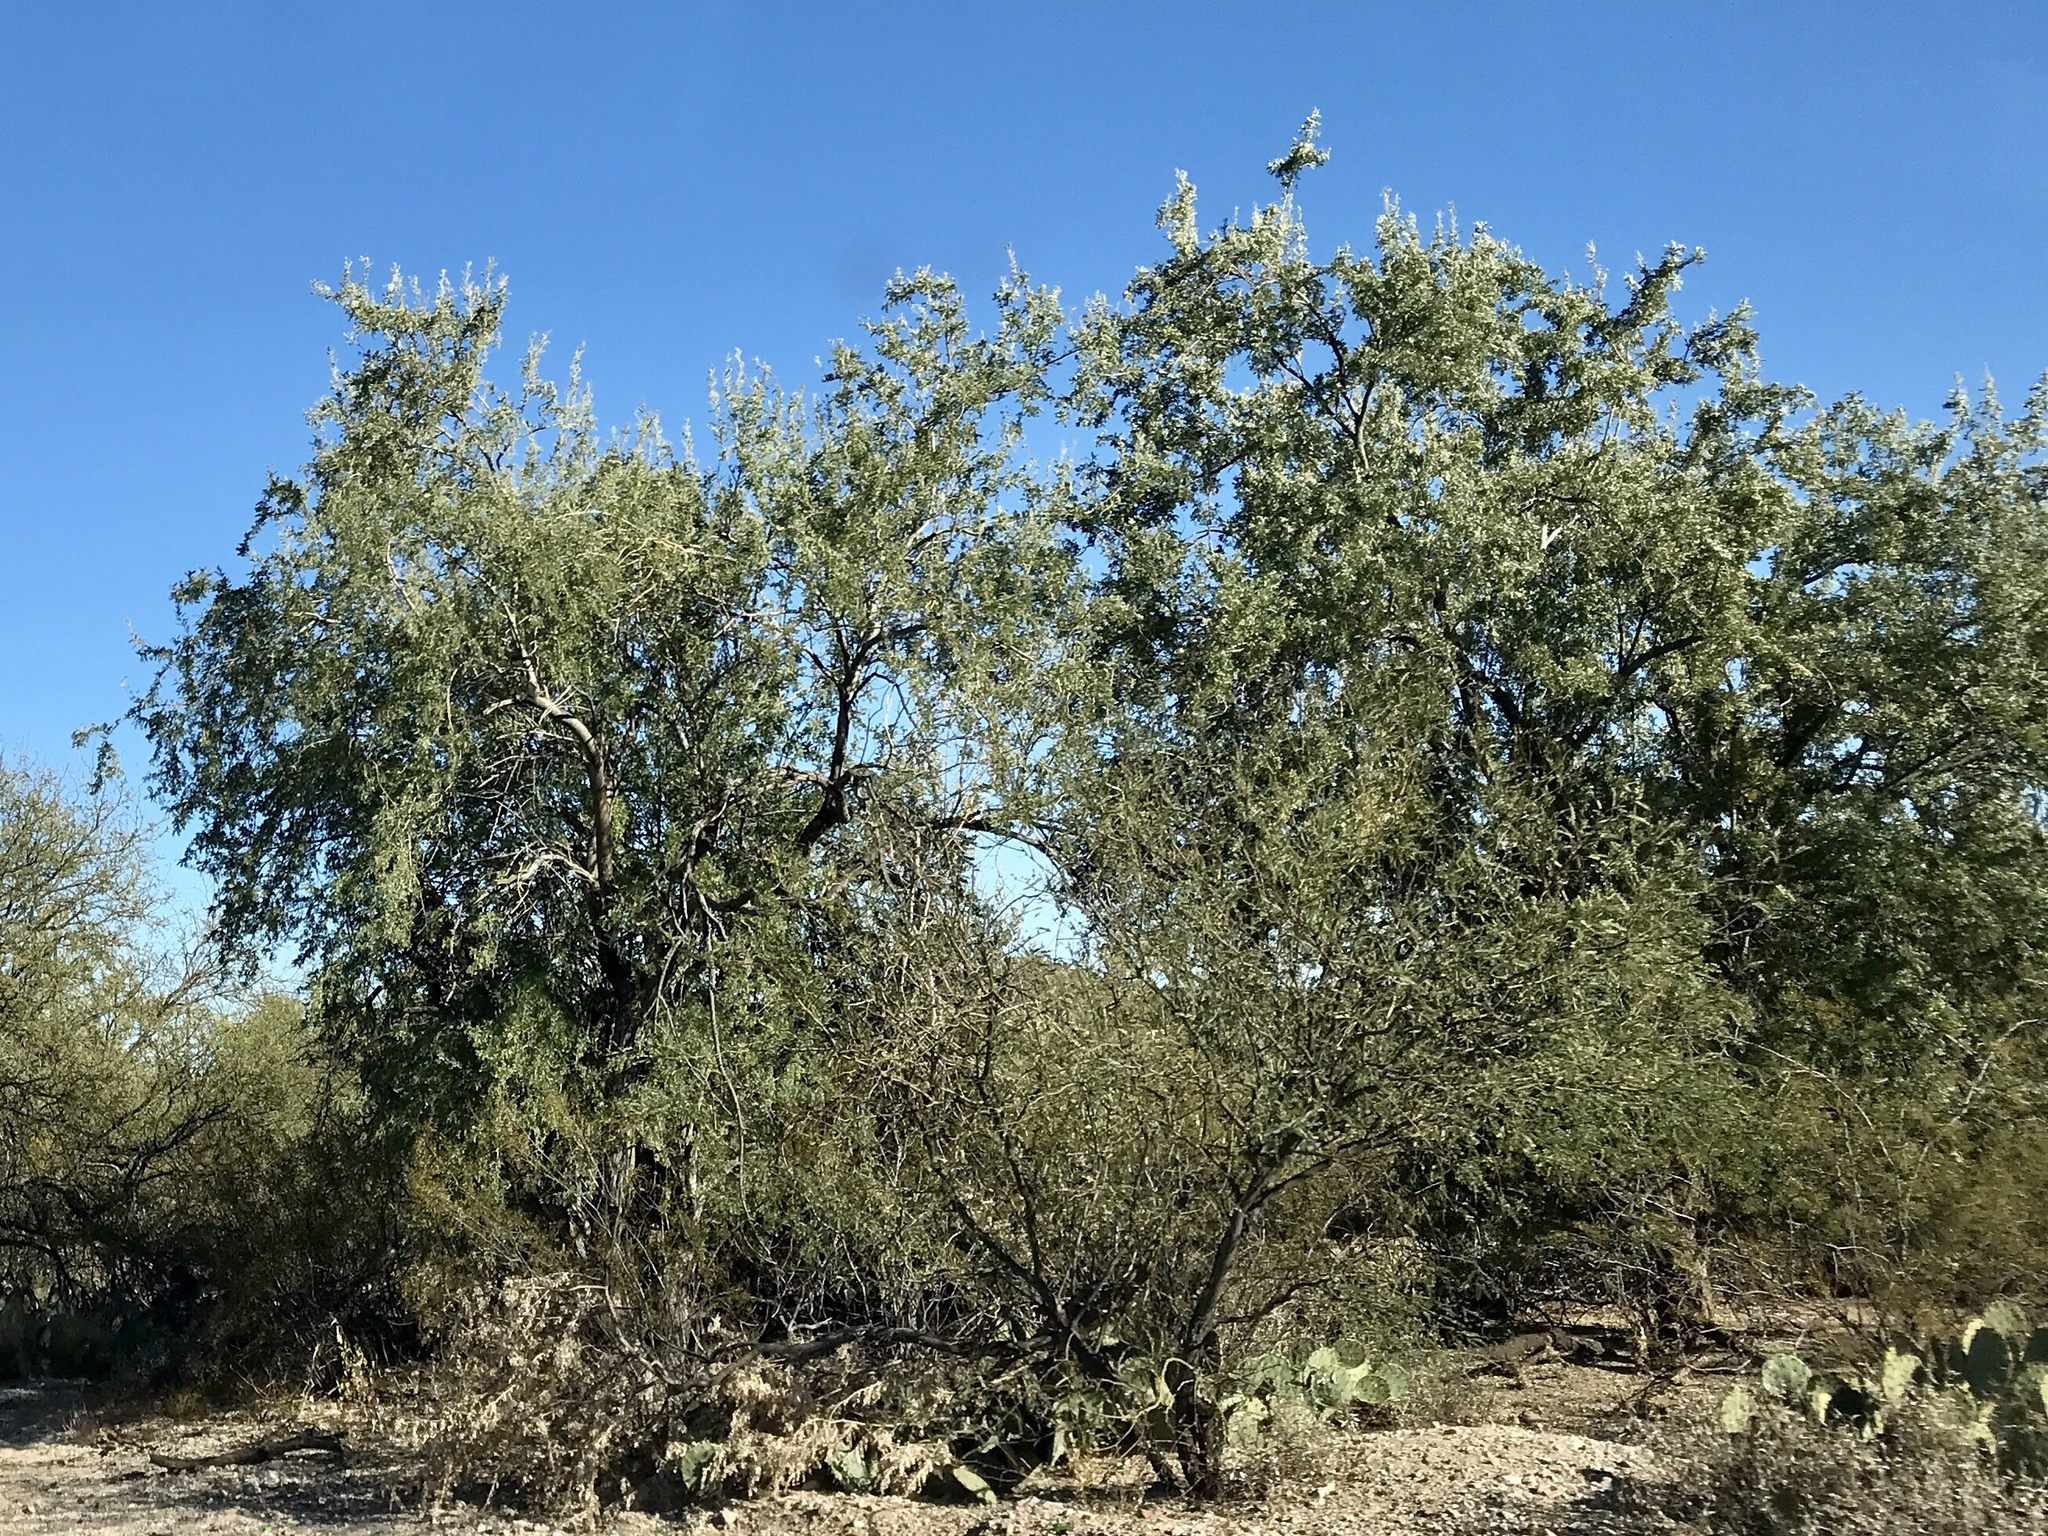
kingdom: Plantae
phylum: Tracheophyta
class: Magnoliopsida
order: Fabales
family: Fabaceae
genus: Olneya
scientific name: Olneya tesota
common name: Desert ironwood
